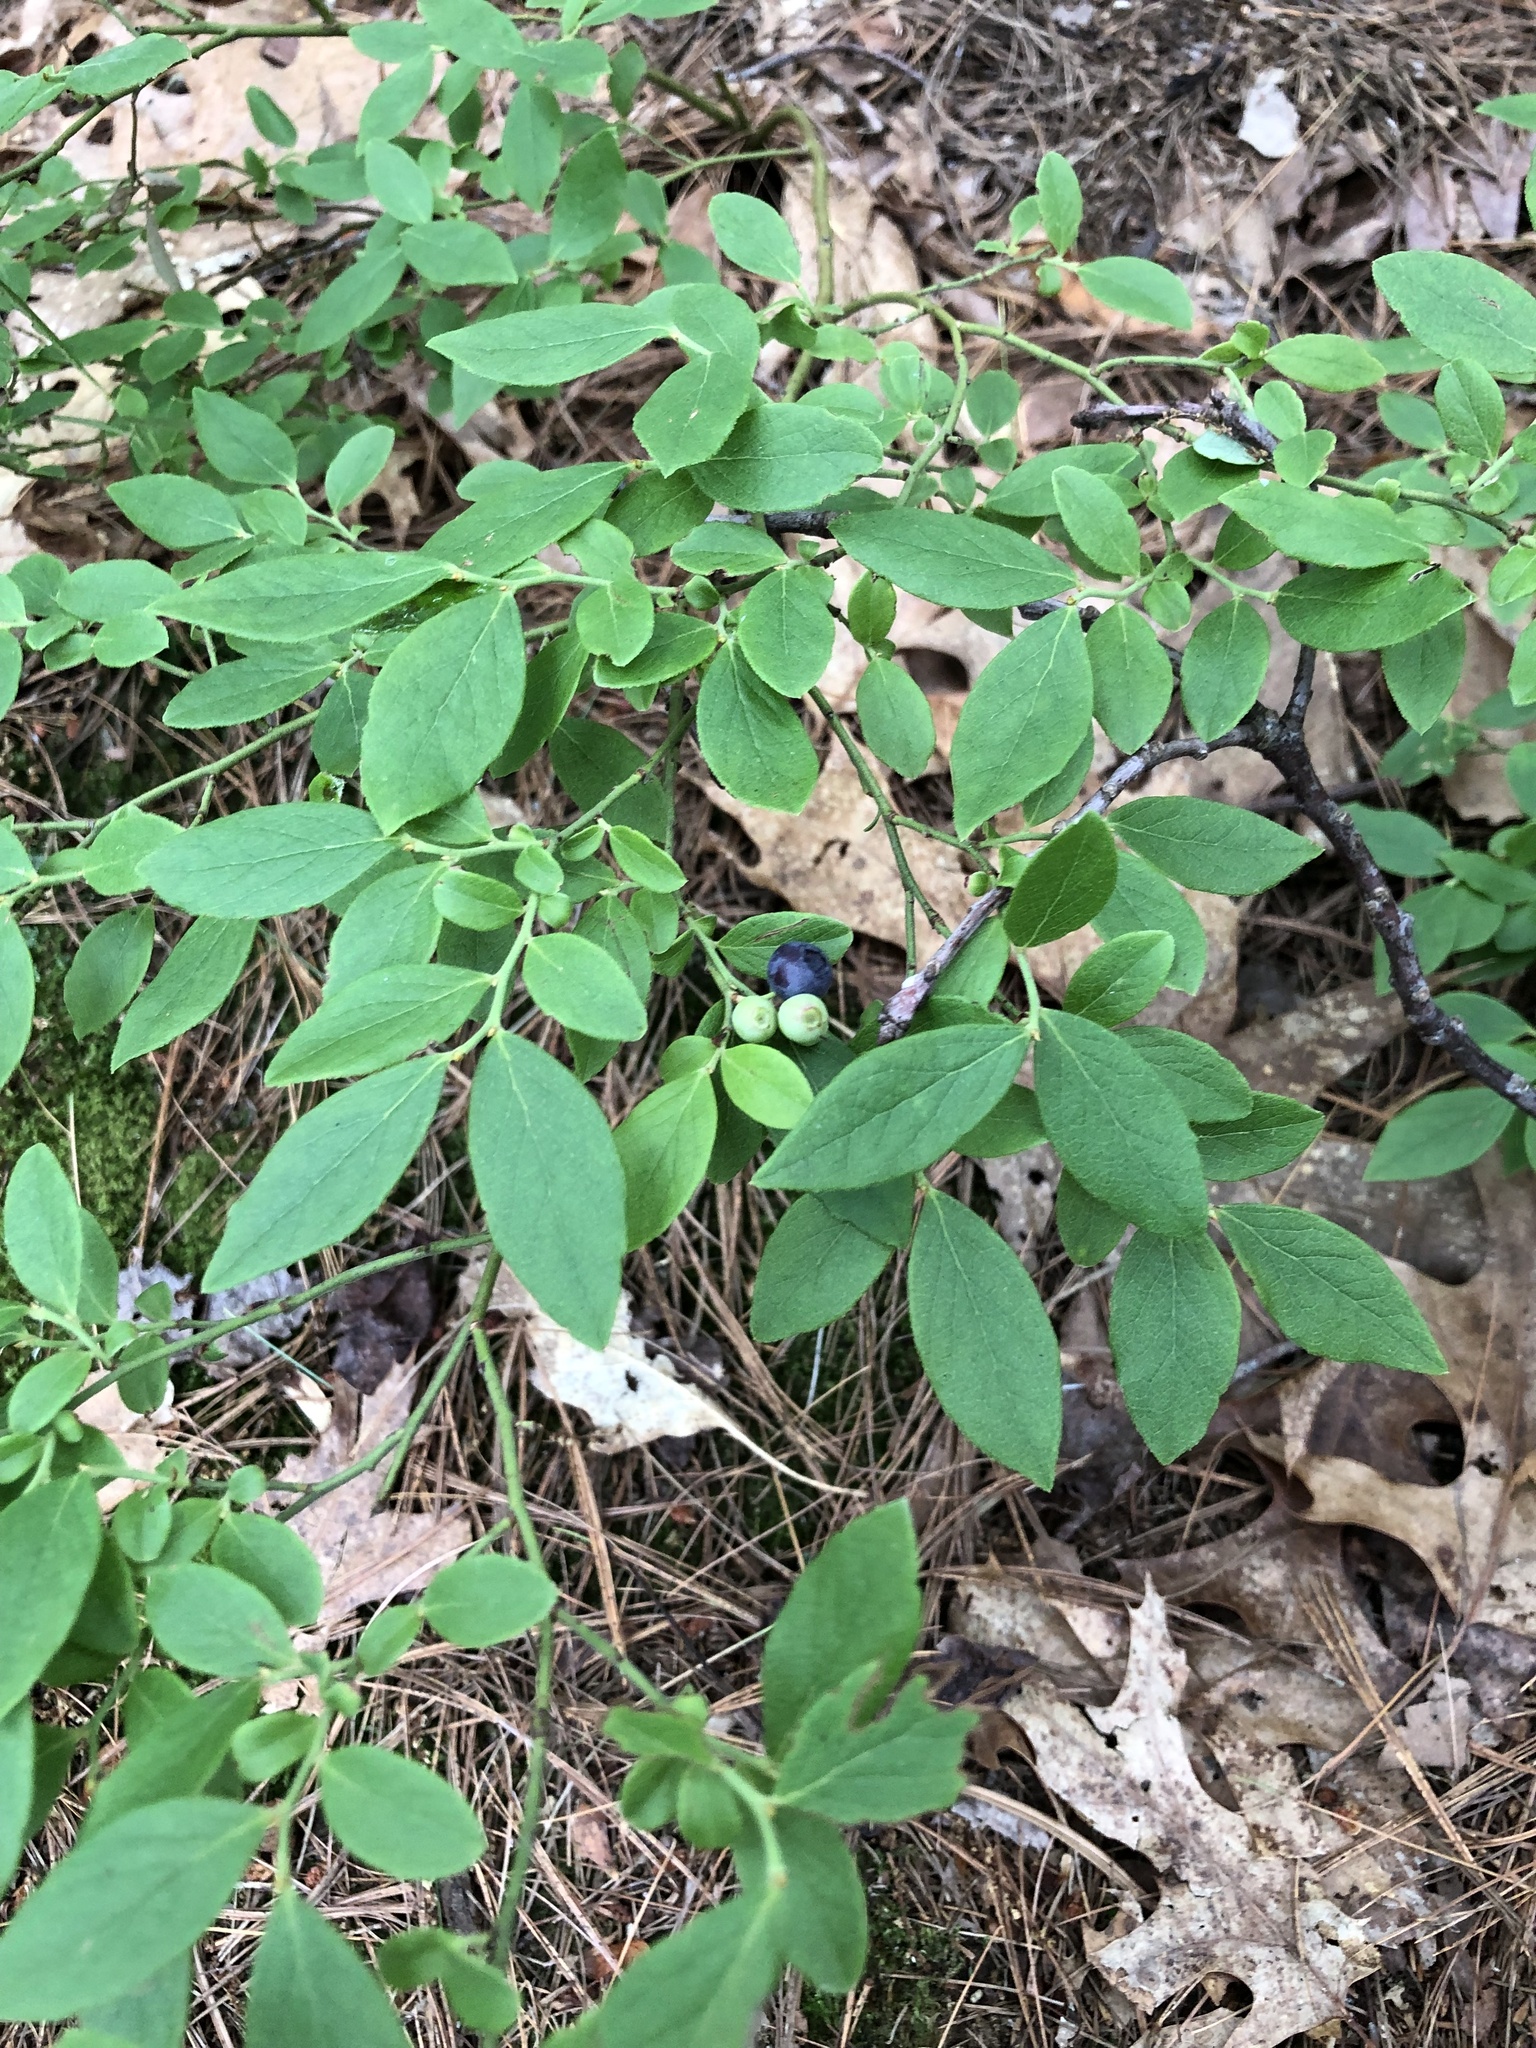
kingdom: Plantae
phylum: Tracheophyta
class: Magnoliopsida
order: Ericales
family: Ericaceae
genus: Vaccinium
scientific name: Vaccinium pallidum
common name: Blue ridge blueberry
